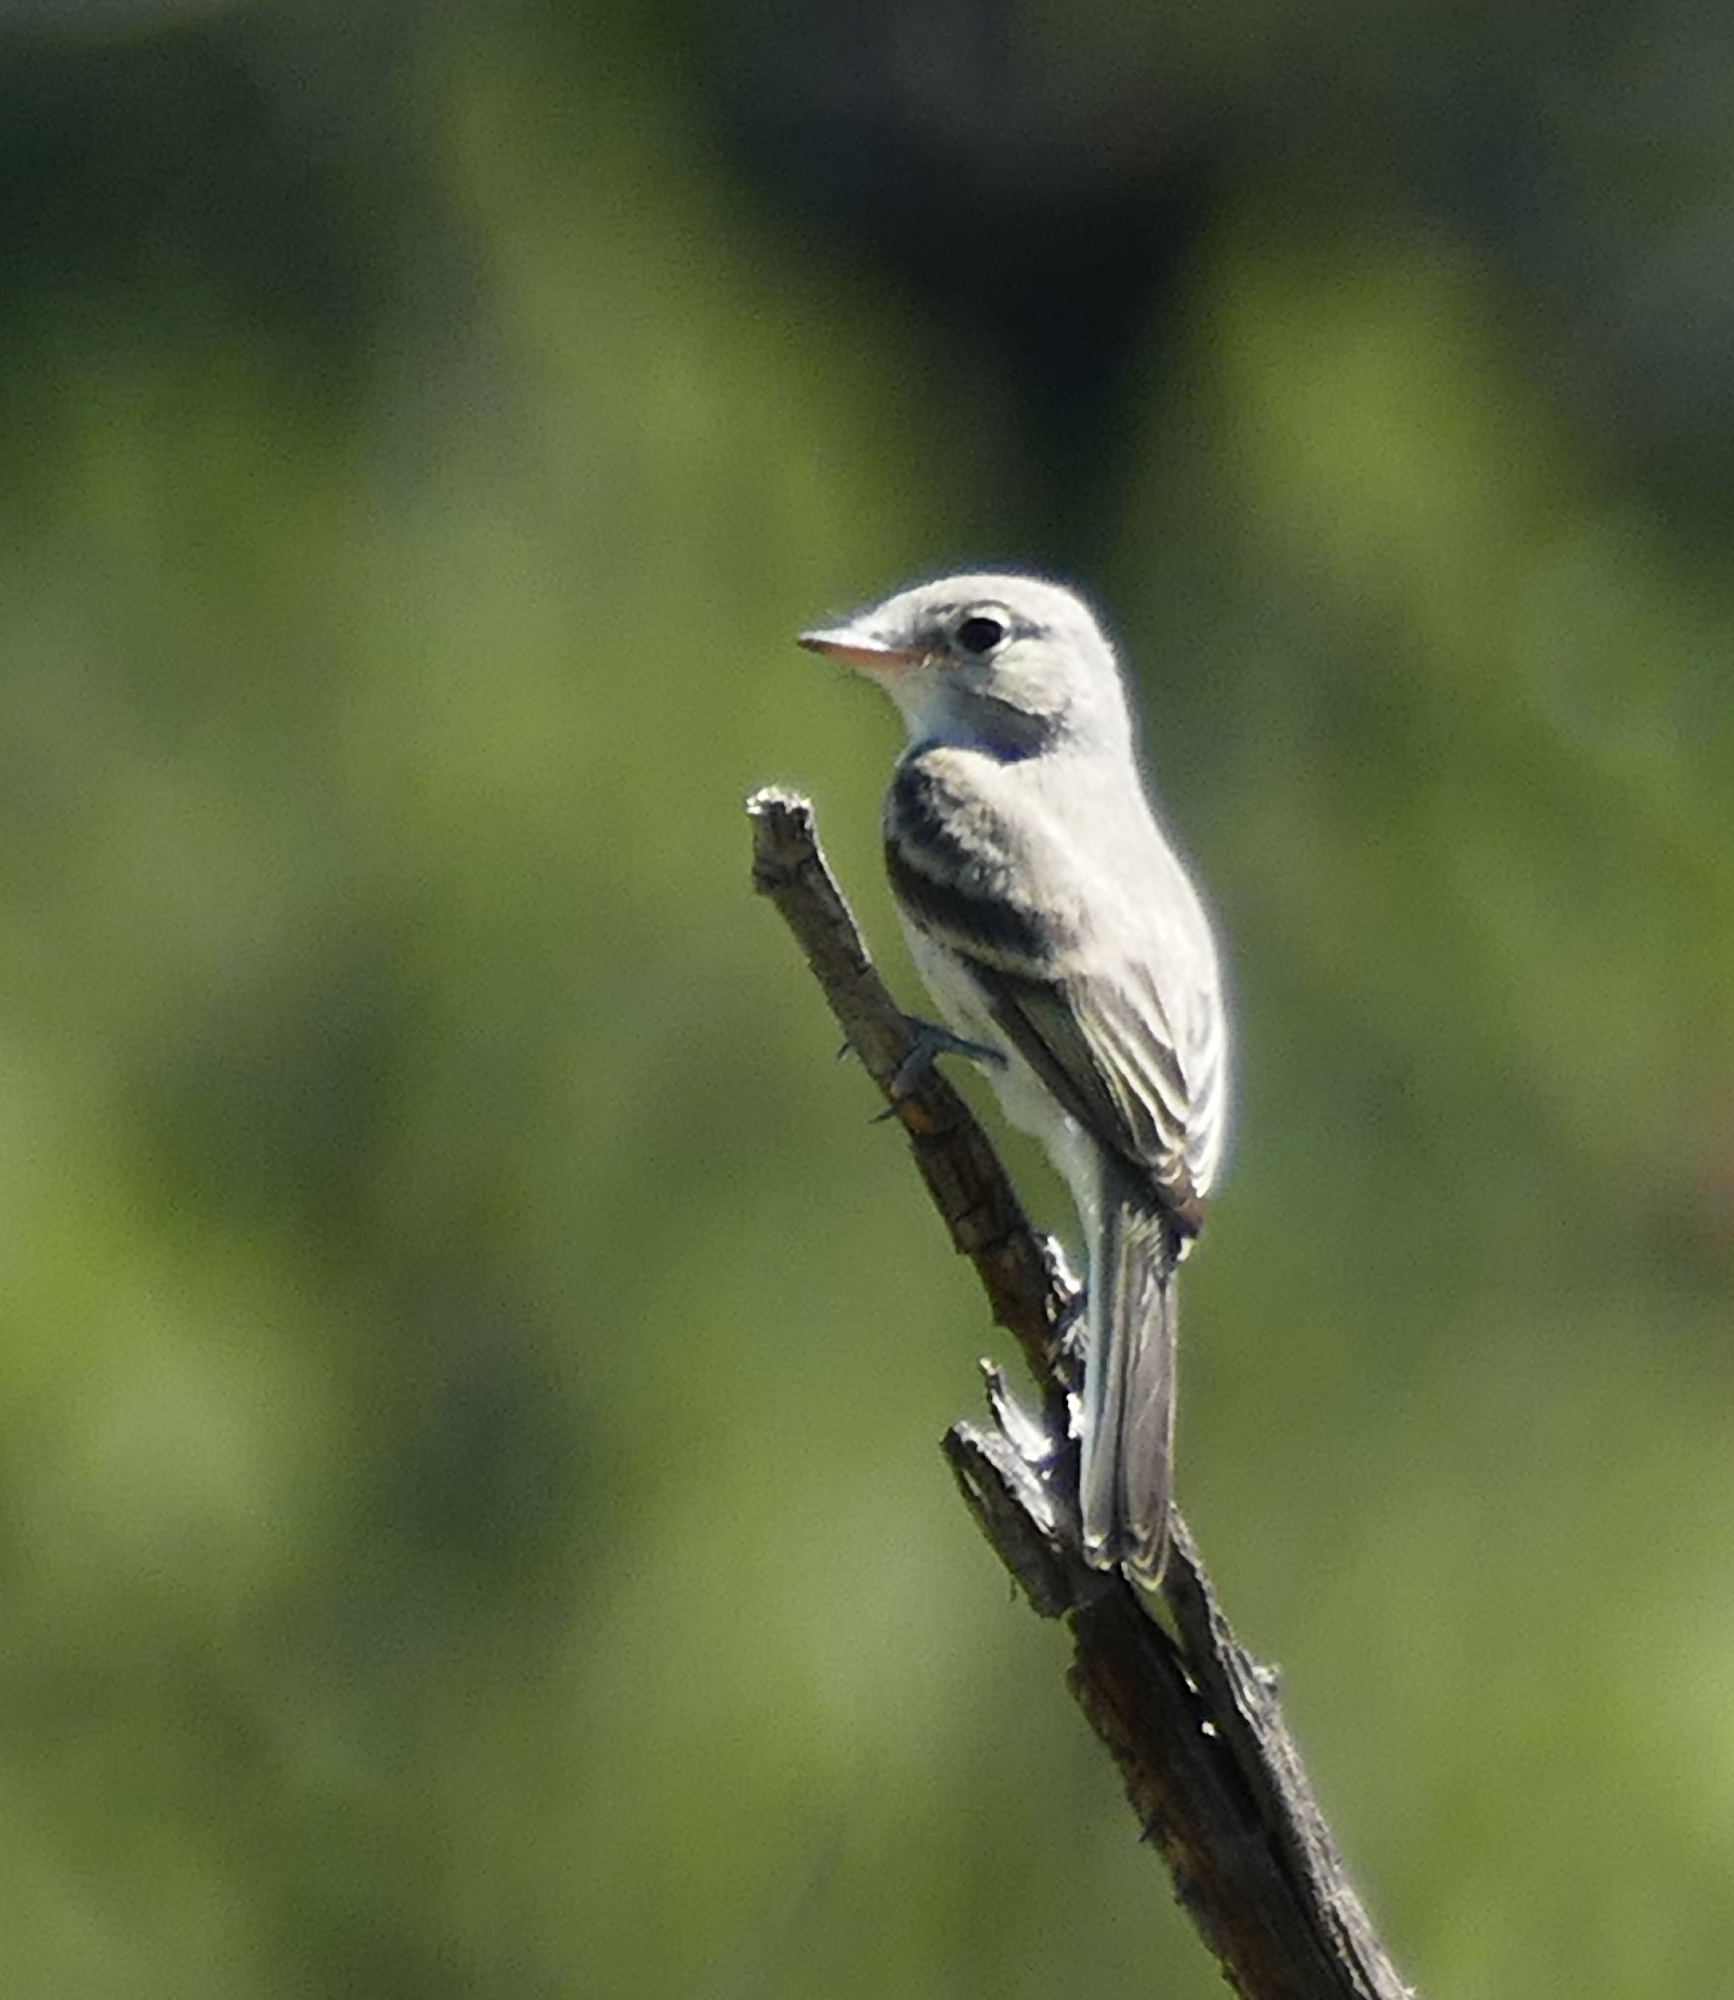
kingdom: Animalia
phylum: Chordata
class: Aves
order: Passeriformes
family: Tyrannidae
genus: Empidonax
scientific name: Empidonax wrightii
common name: Gray flycatcher
